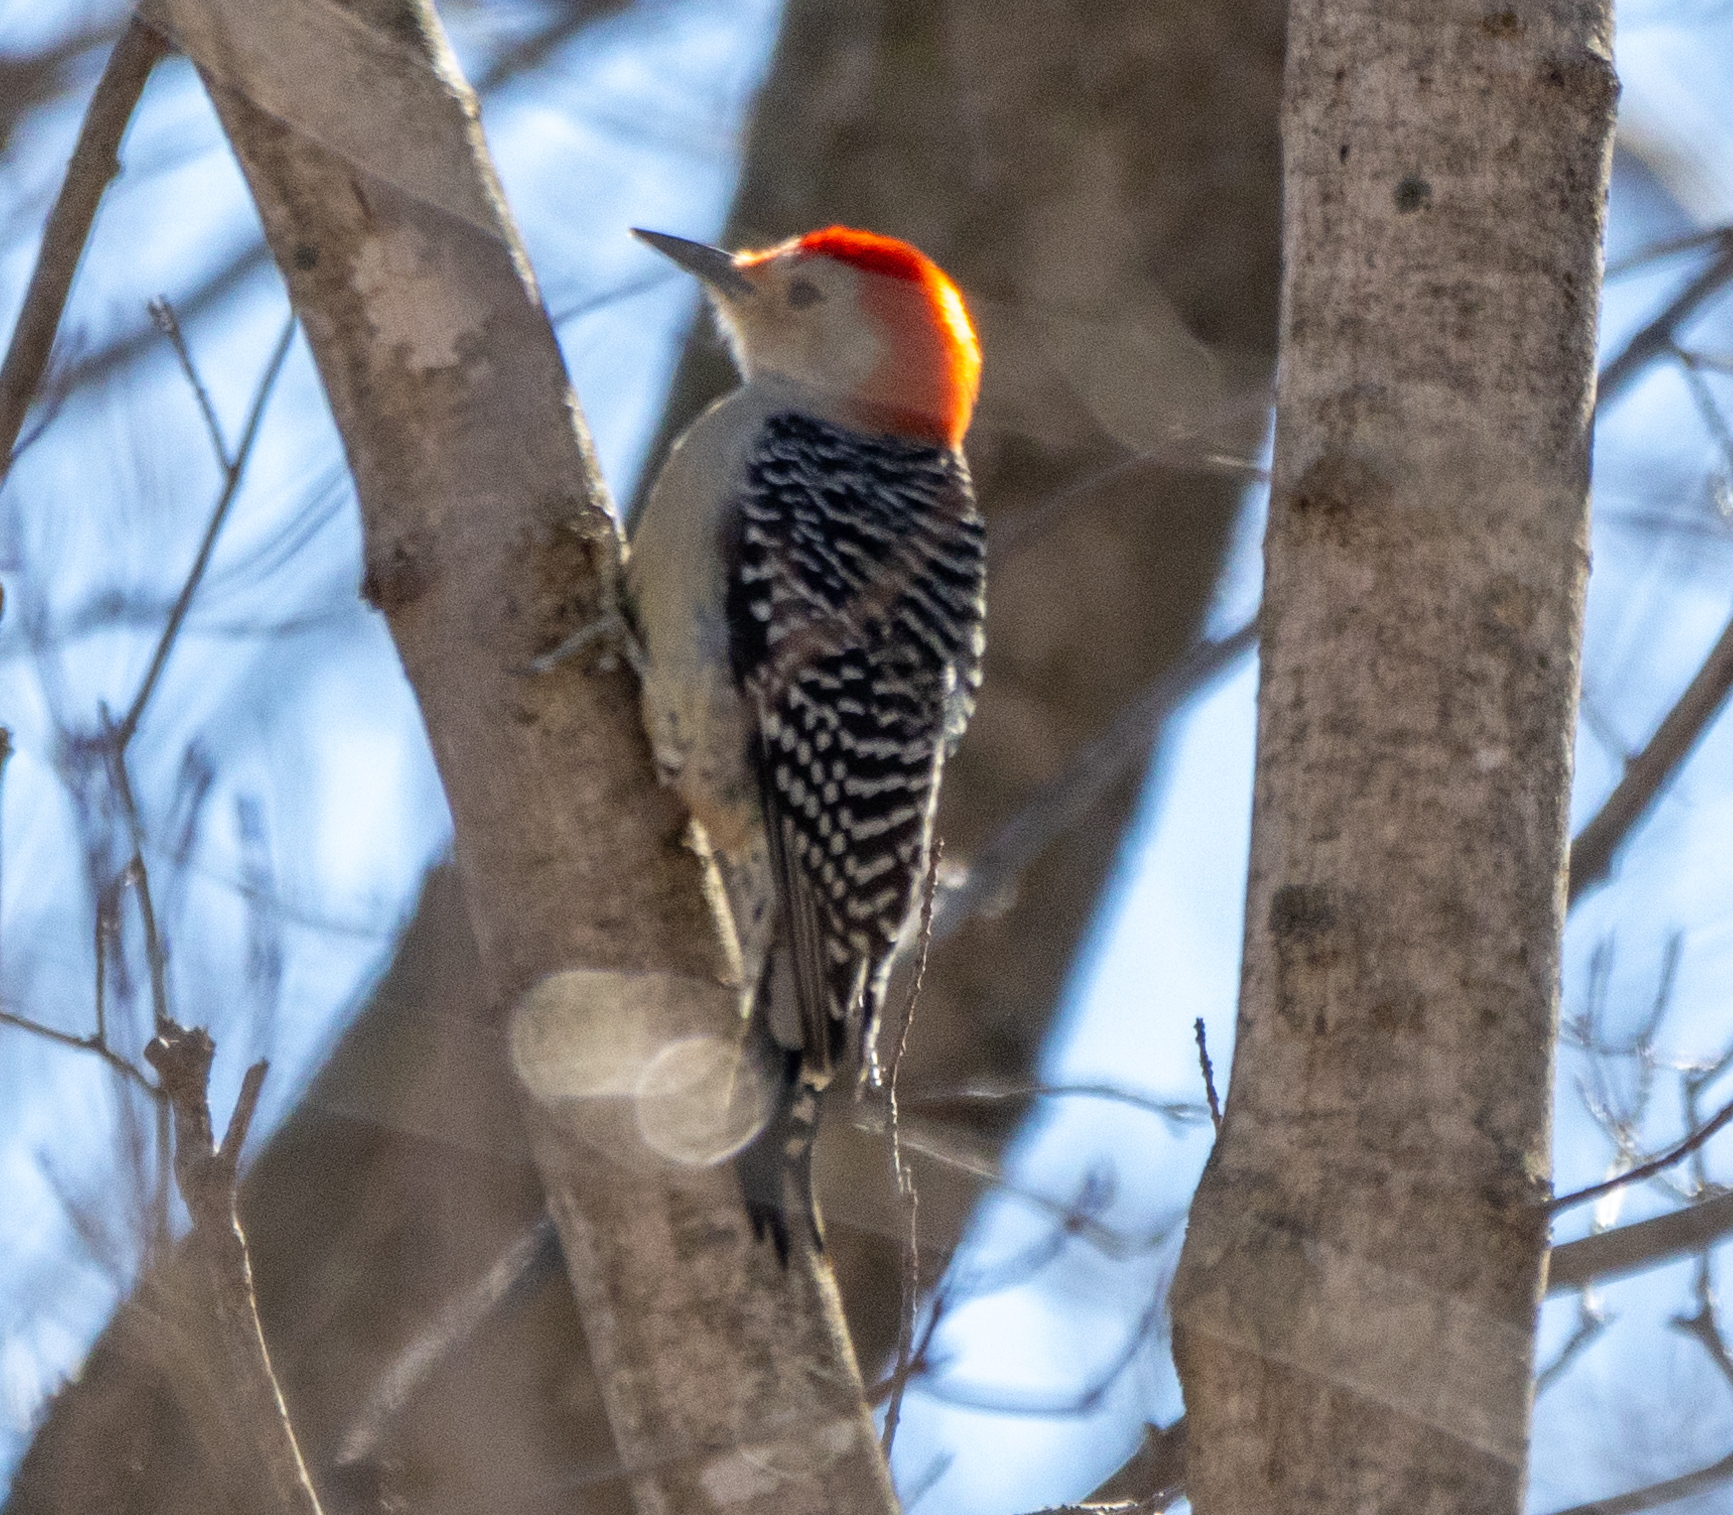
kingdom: Animalia
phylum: Chordata
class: Aves
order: Piciformes
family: Picidae
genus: Melanerpes
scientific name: Melanerpes carolinus
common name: Red-bellied woodpecker
